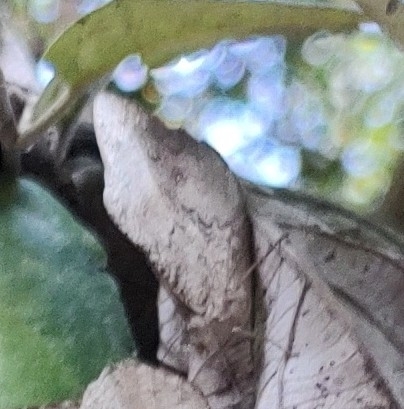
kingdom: Animalia
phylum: Arthropoda
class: Insecta
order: Lepidoptera
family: Nymphalidae
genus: Eunica
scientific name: Eunica eburnea
